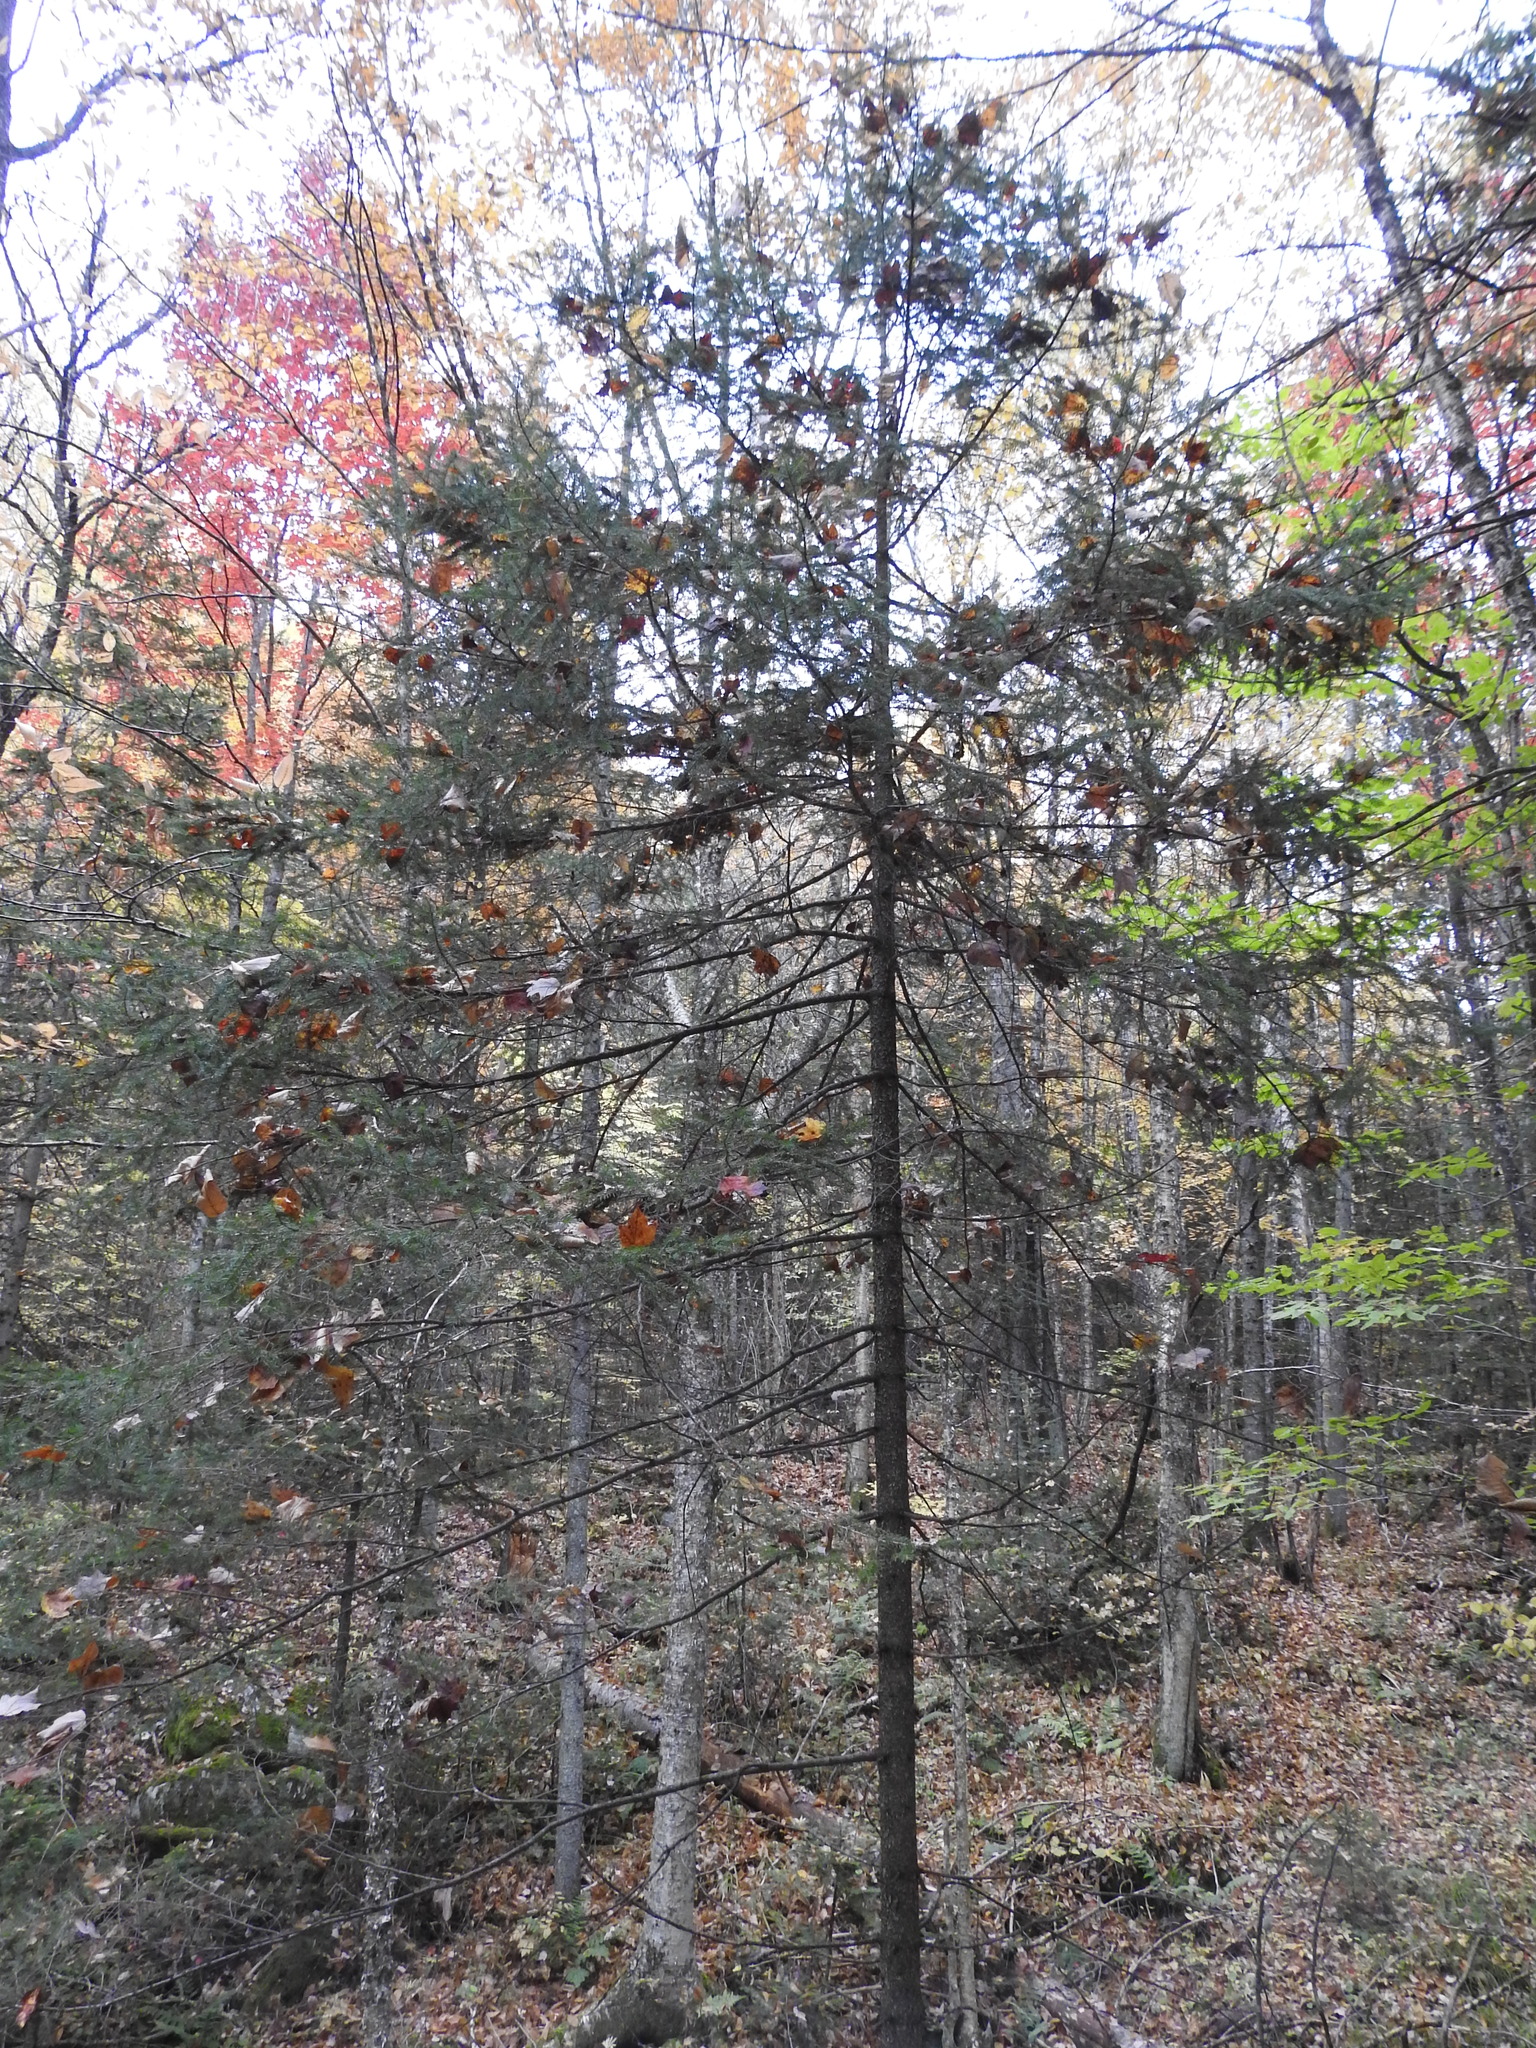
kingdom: Plantae
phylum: Tracheophyta
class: Pinopsida
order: Pinales
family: Pinaceae
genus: Picea
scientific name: Picea rubens
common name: Red spruce
